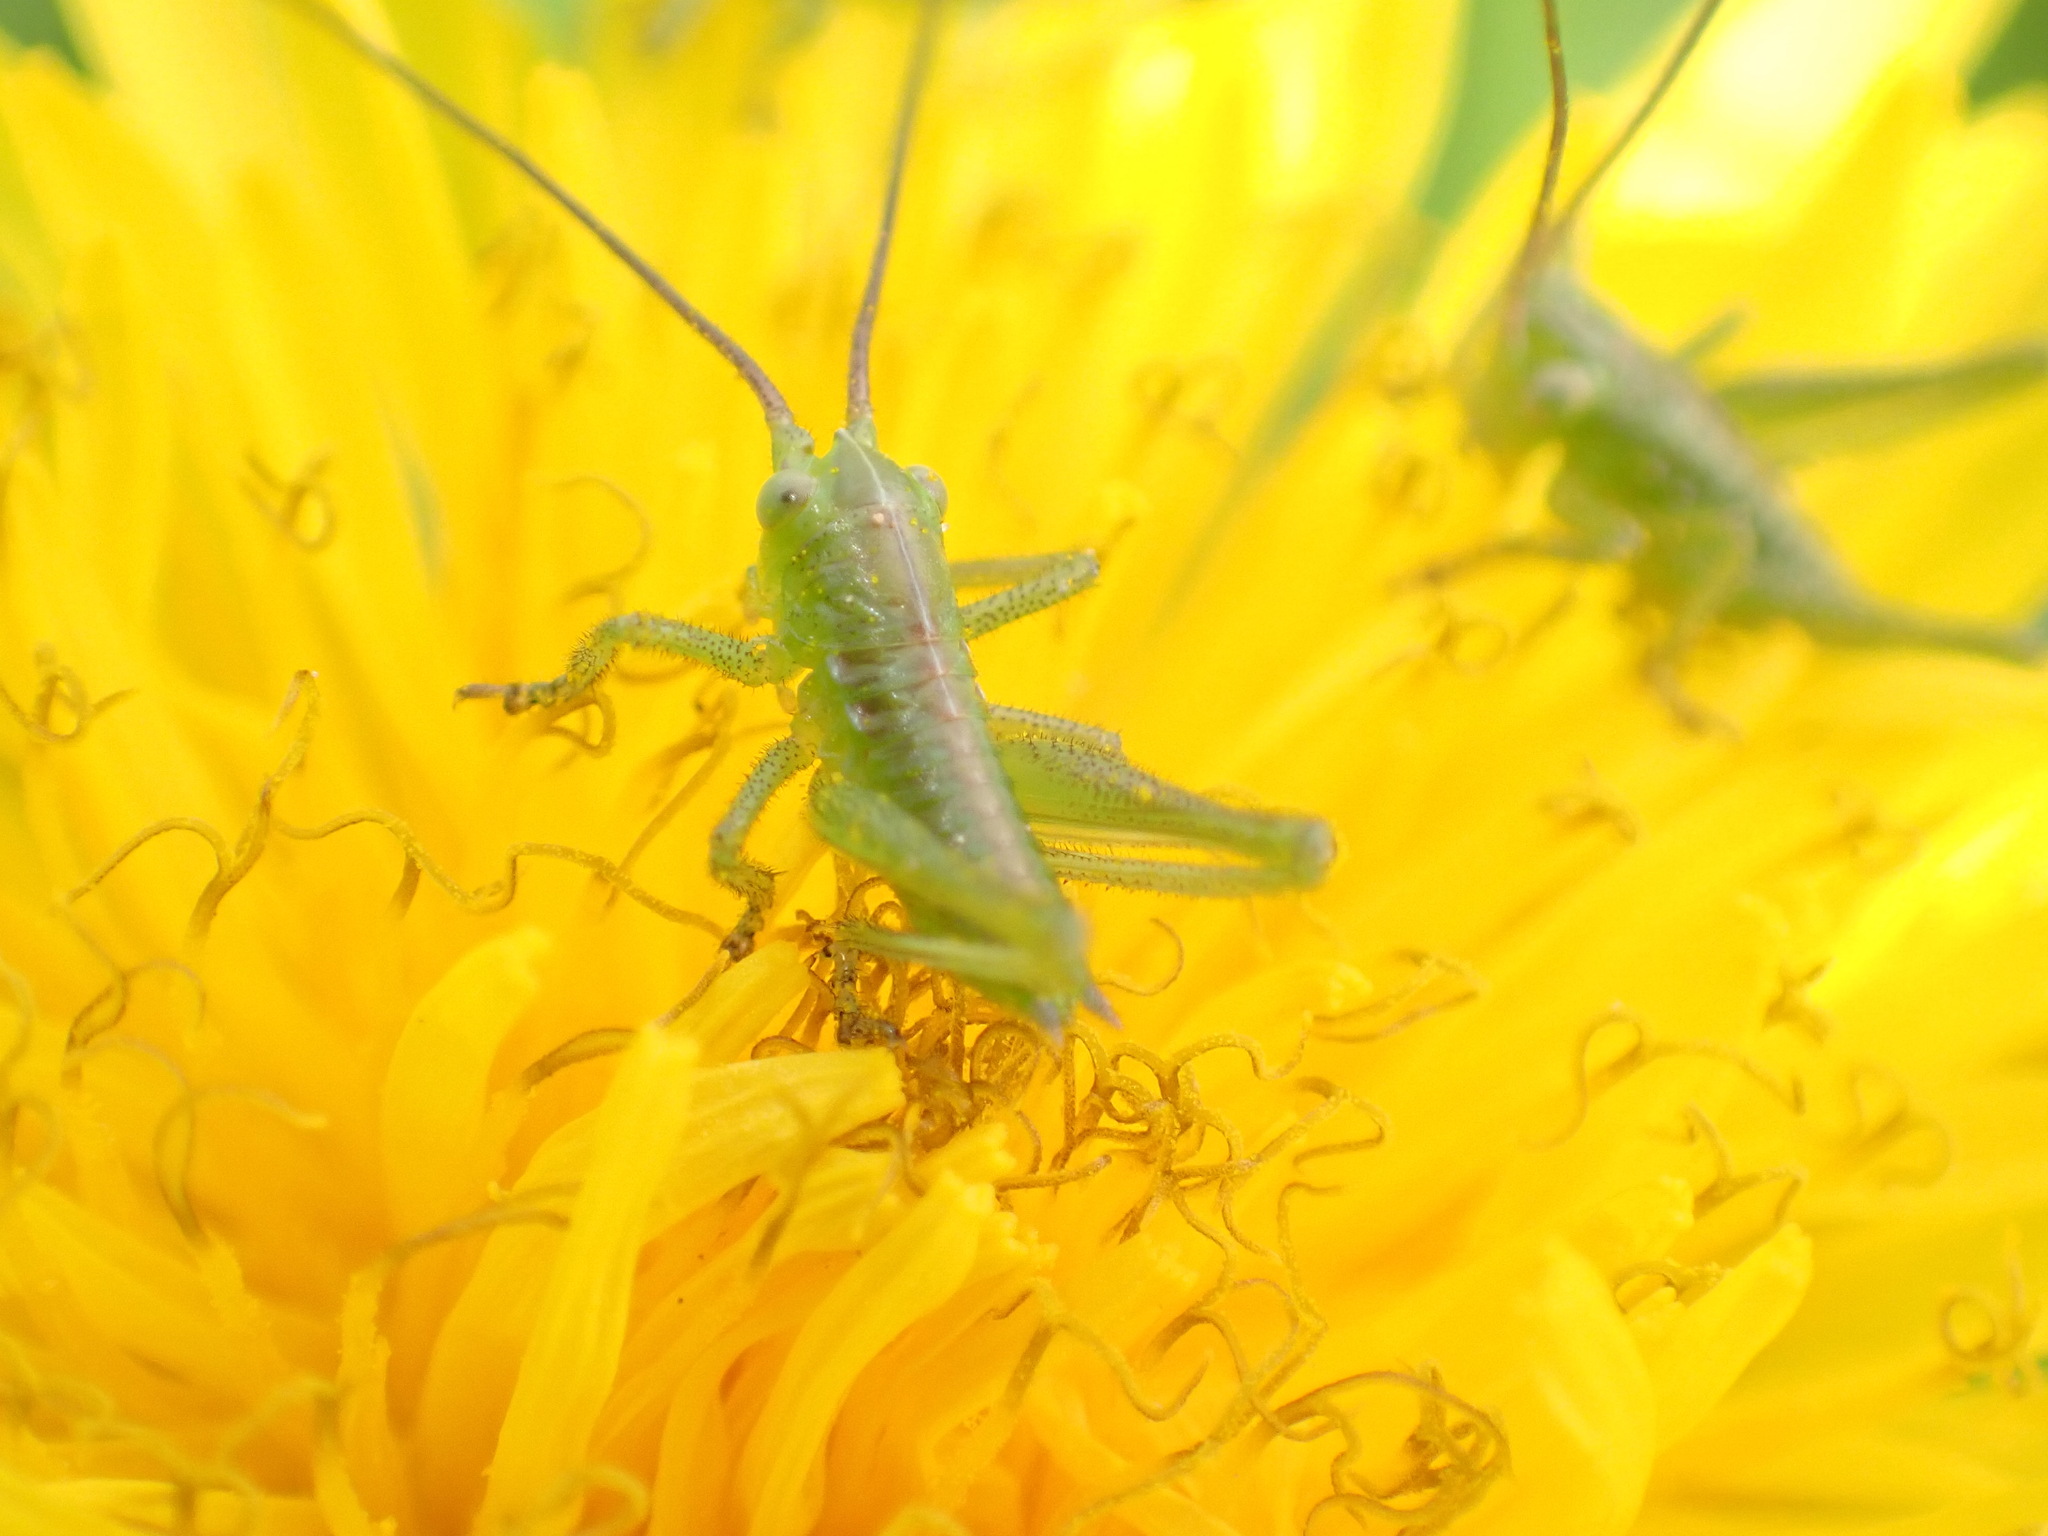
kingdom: Animalia
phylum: Arthropoda
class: Insecta
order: Orthoptera
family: Tettigoniidae
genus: Tettigonia
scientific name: Tettigonia viridissima
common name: Great green bush-cricket
